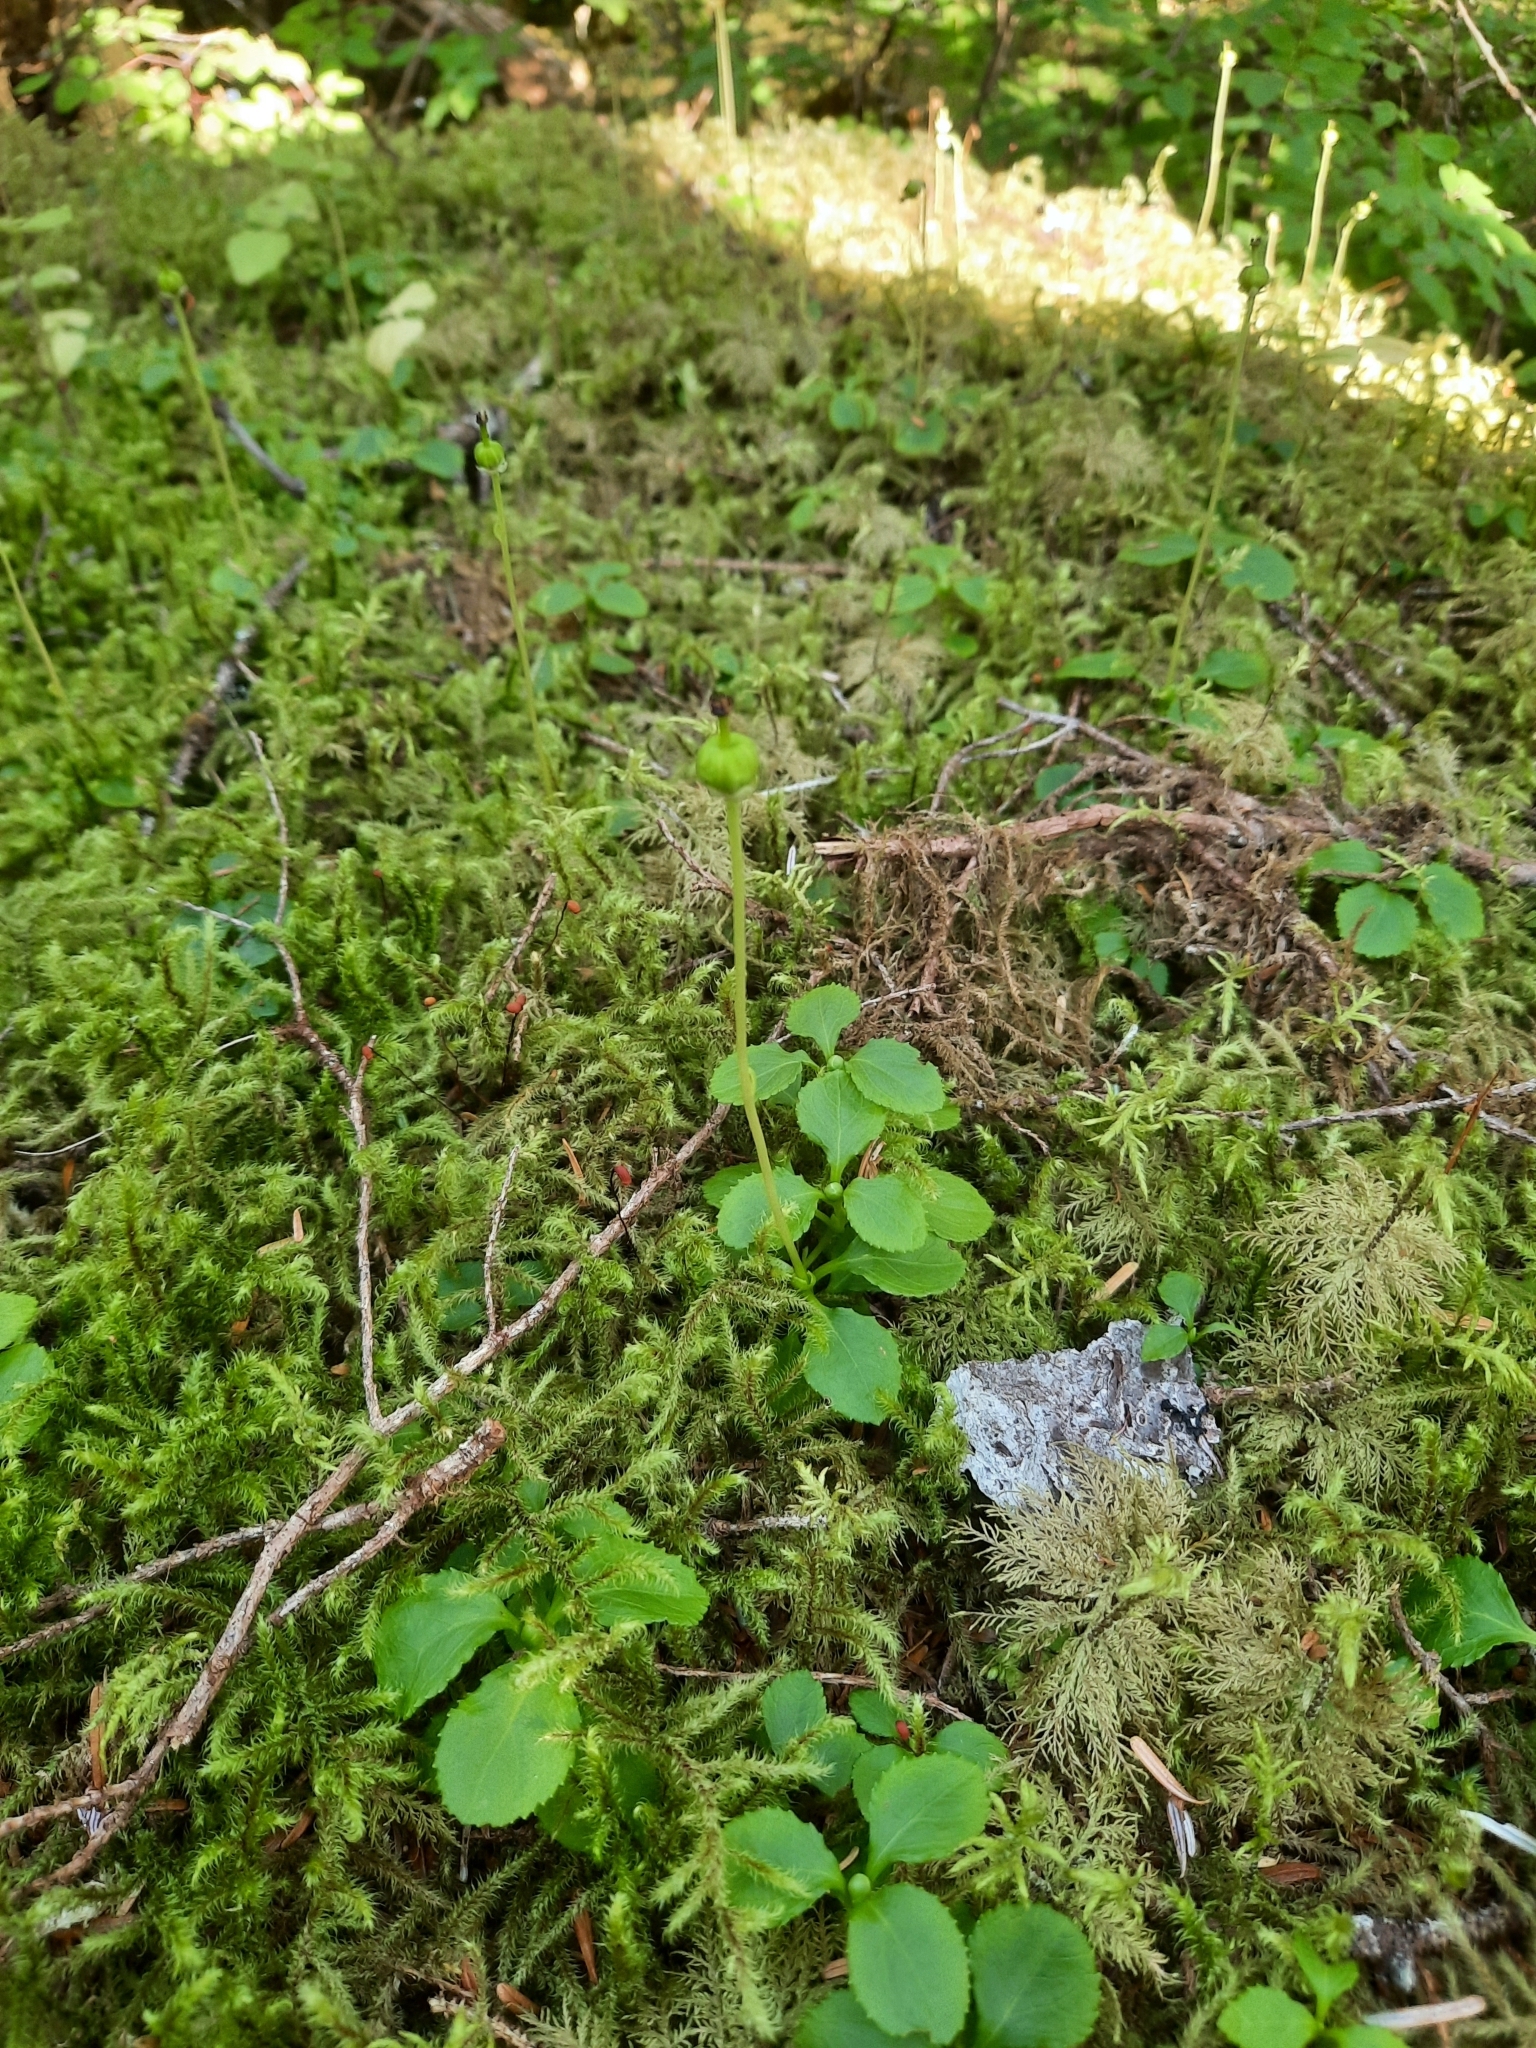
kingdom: Plantae
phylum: Tracheophyta
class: Magnoliopsida
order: Ericales
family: Ericaceae
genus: Moneses
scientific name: Moneses uniflora
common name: One-flowered wintergreen
